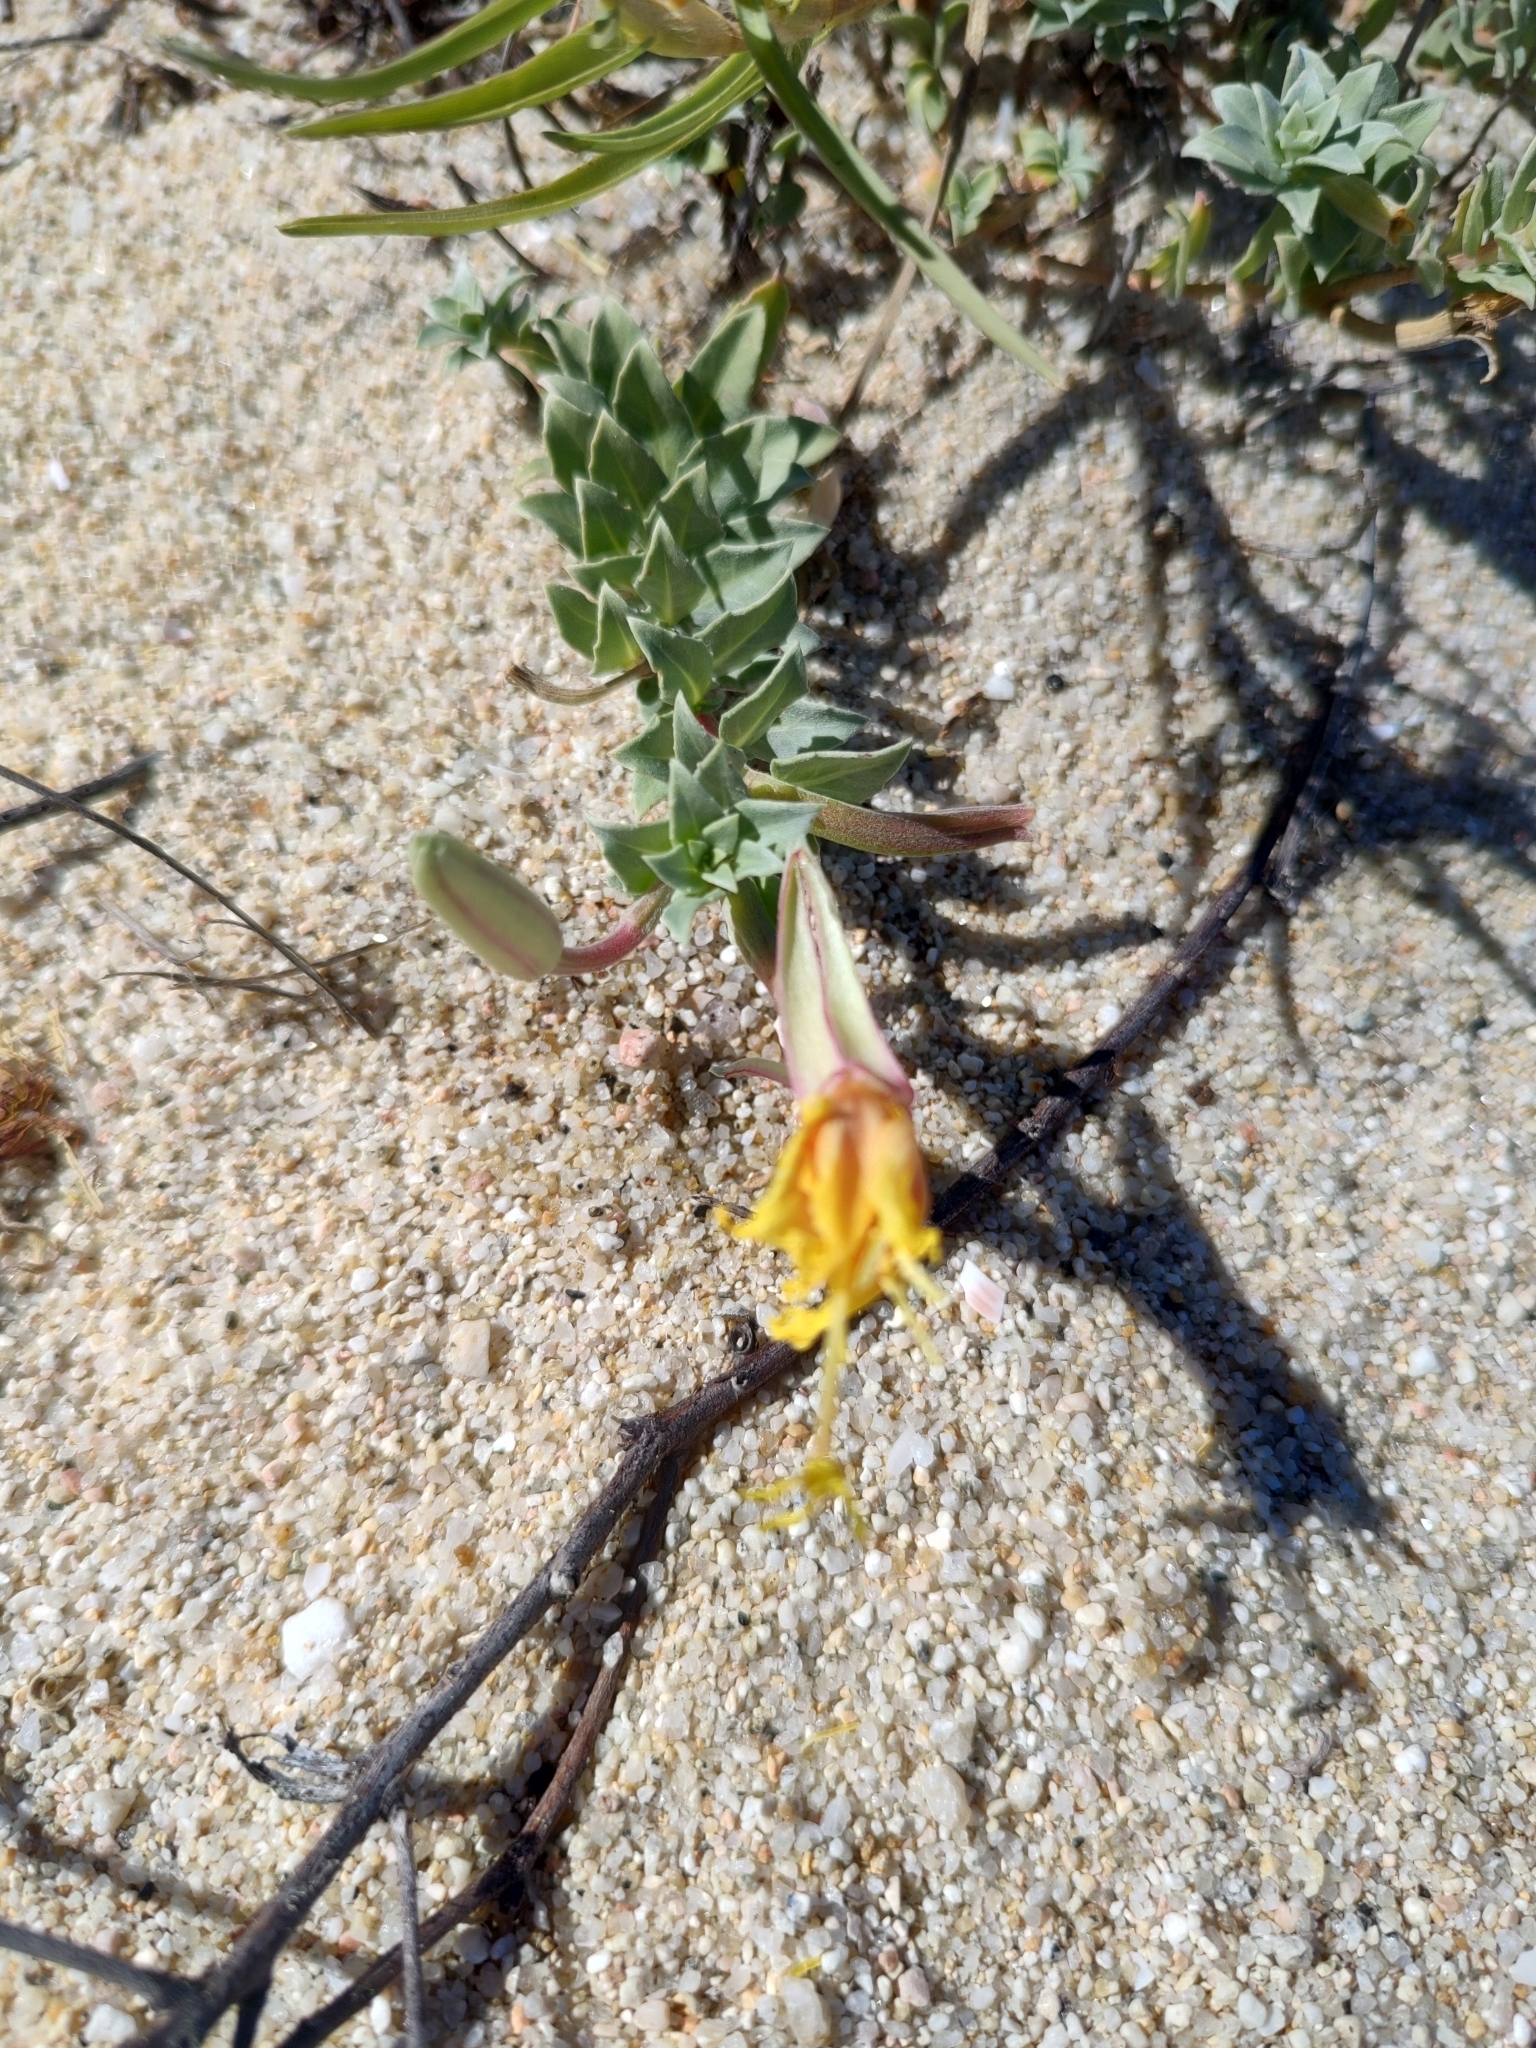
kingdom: Plantae
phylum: Tracheophyta
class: Magnoliopsida
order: Myrtales
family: Onagraceae
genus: Oenothera
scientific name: Oenothera drummondii
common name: Beach evening-primrose
